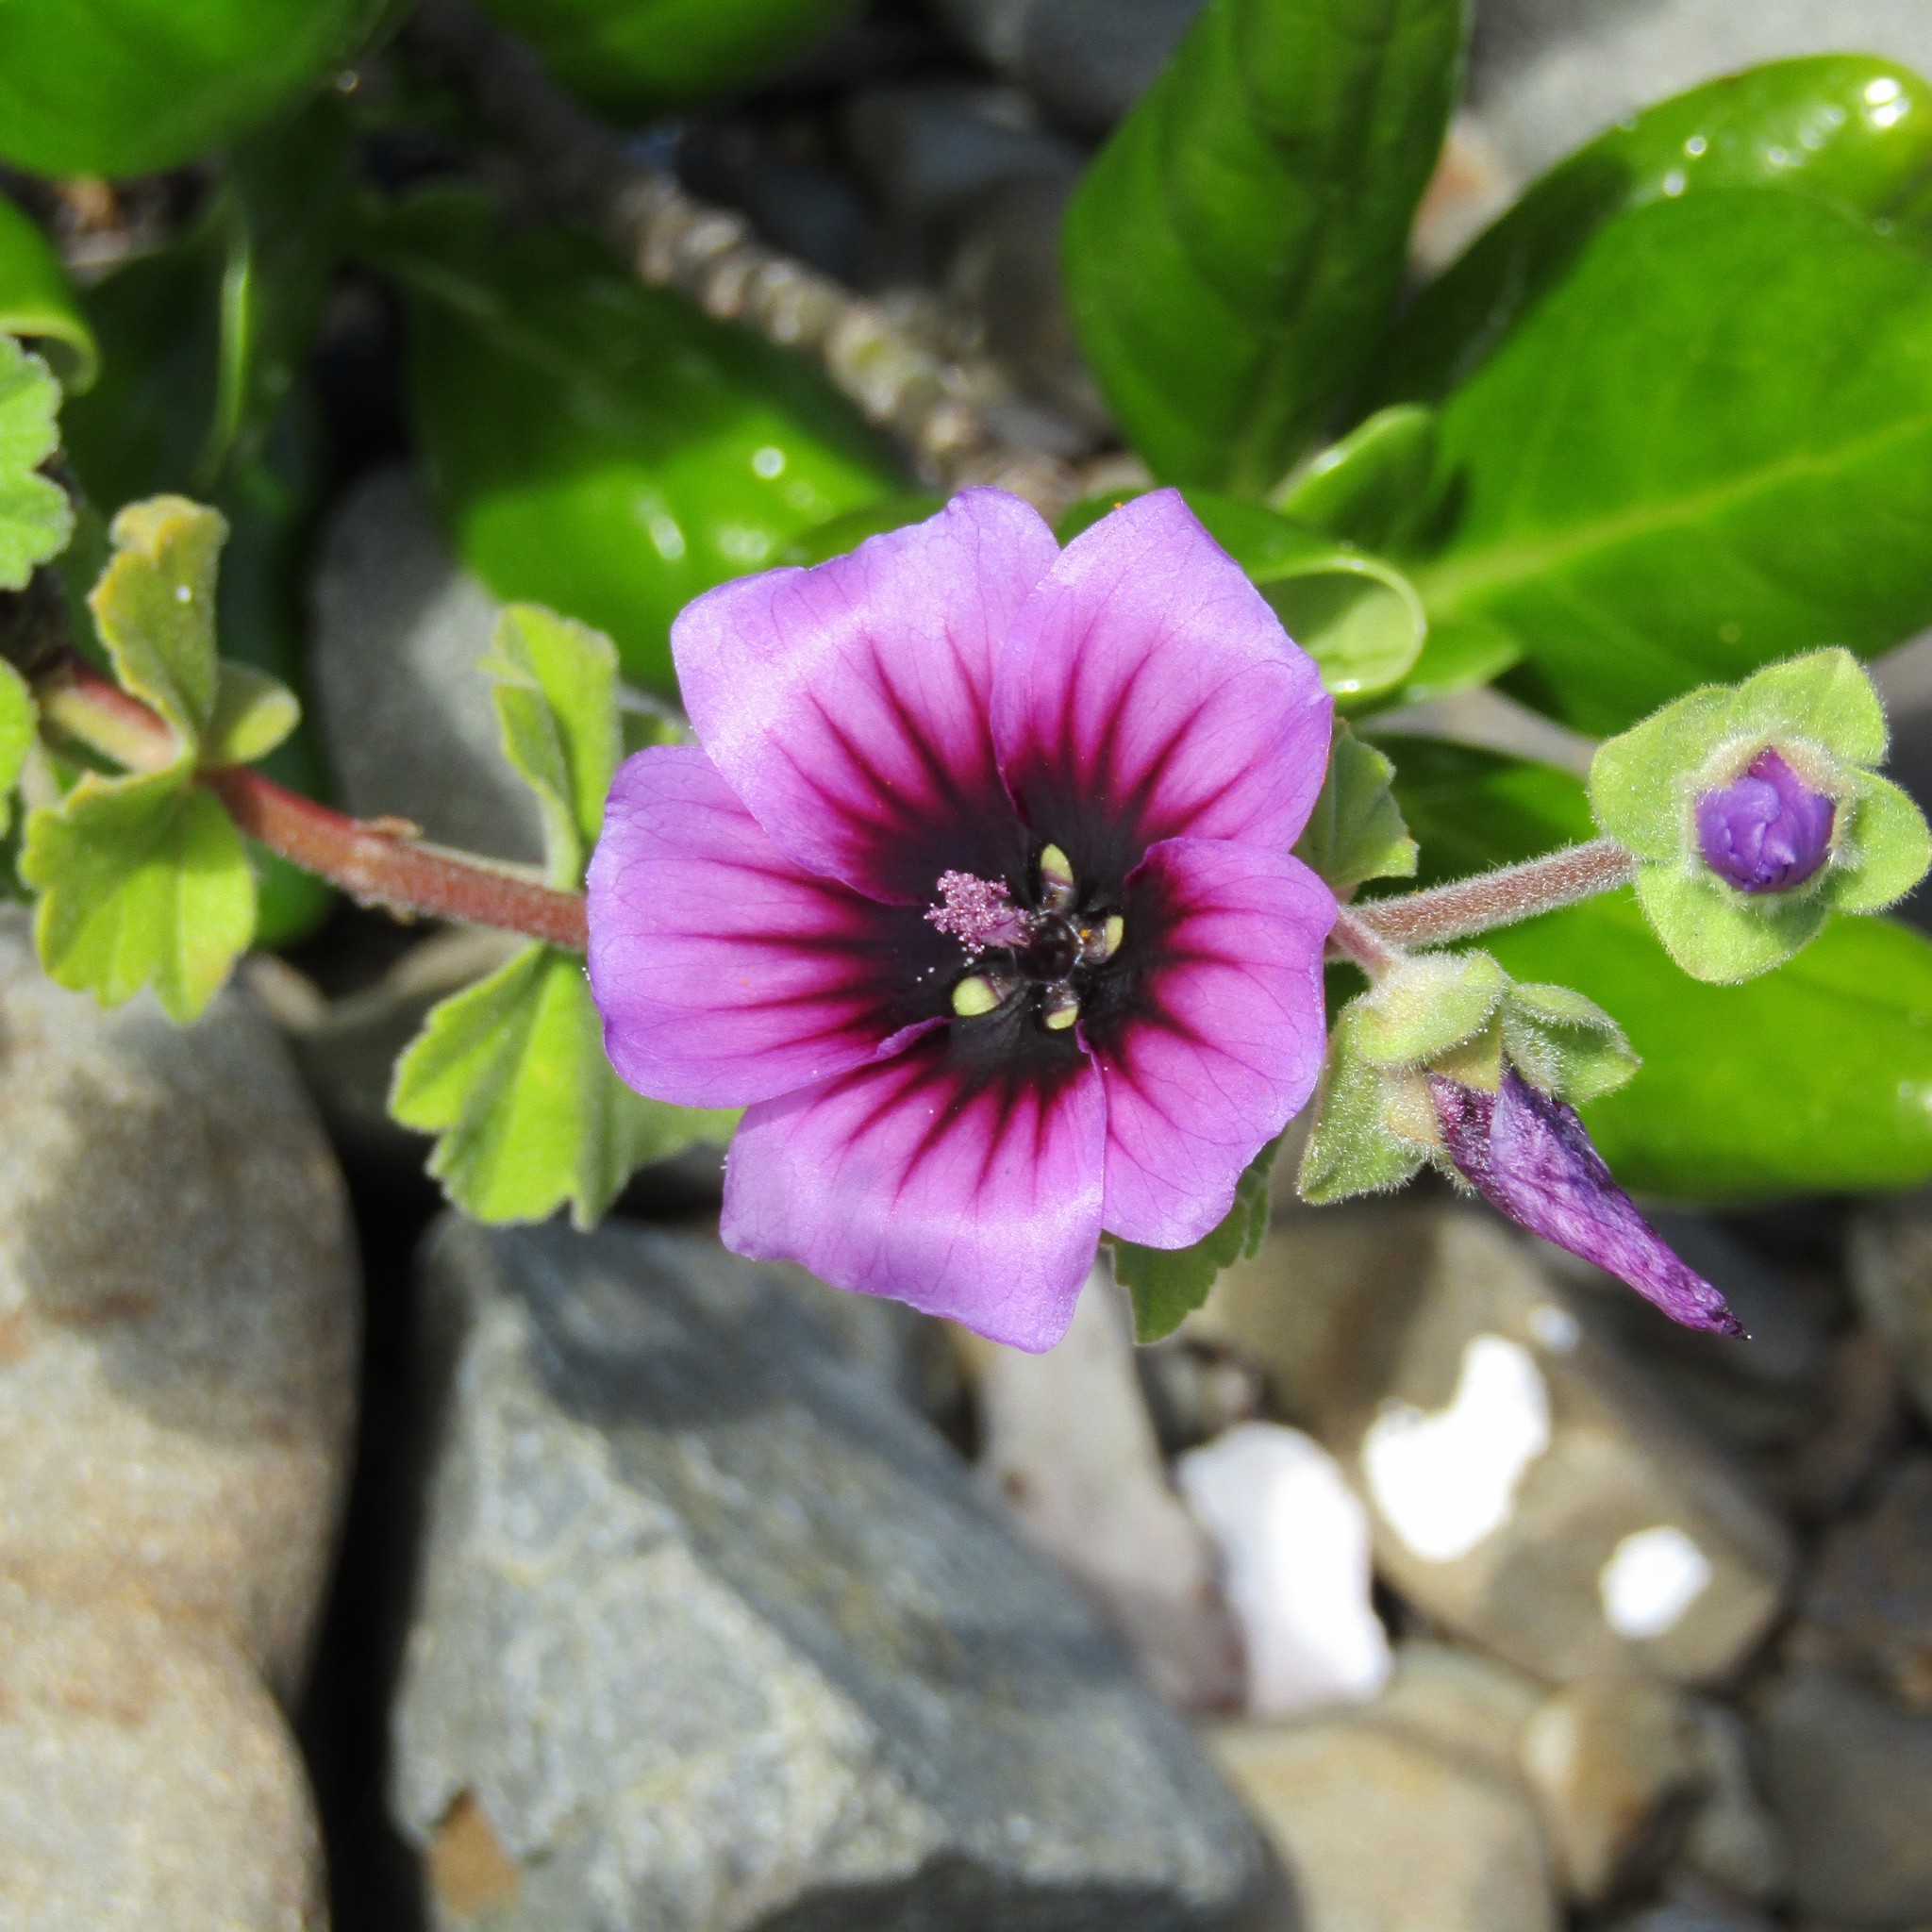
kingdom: Plantae
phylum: Tracheophyta
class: Magnoliopsida
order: Malvales
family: Malvaceae
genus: Malva
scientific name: Malva arborea
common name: Tree mallow
